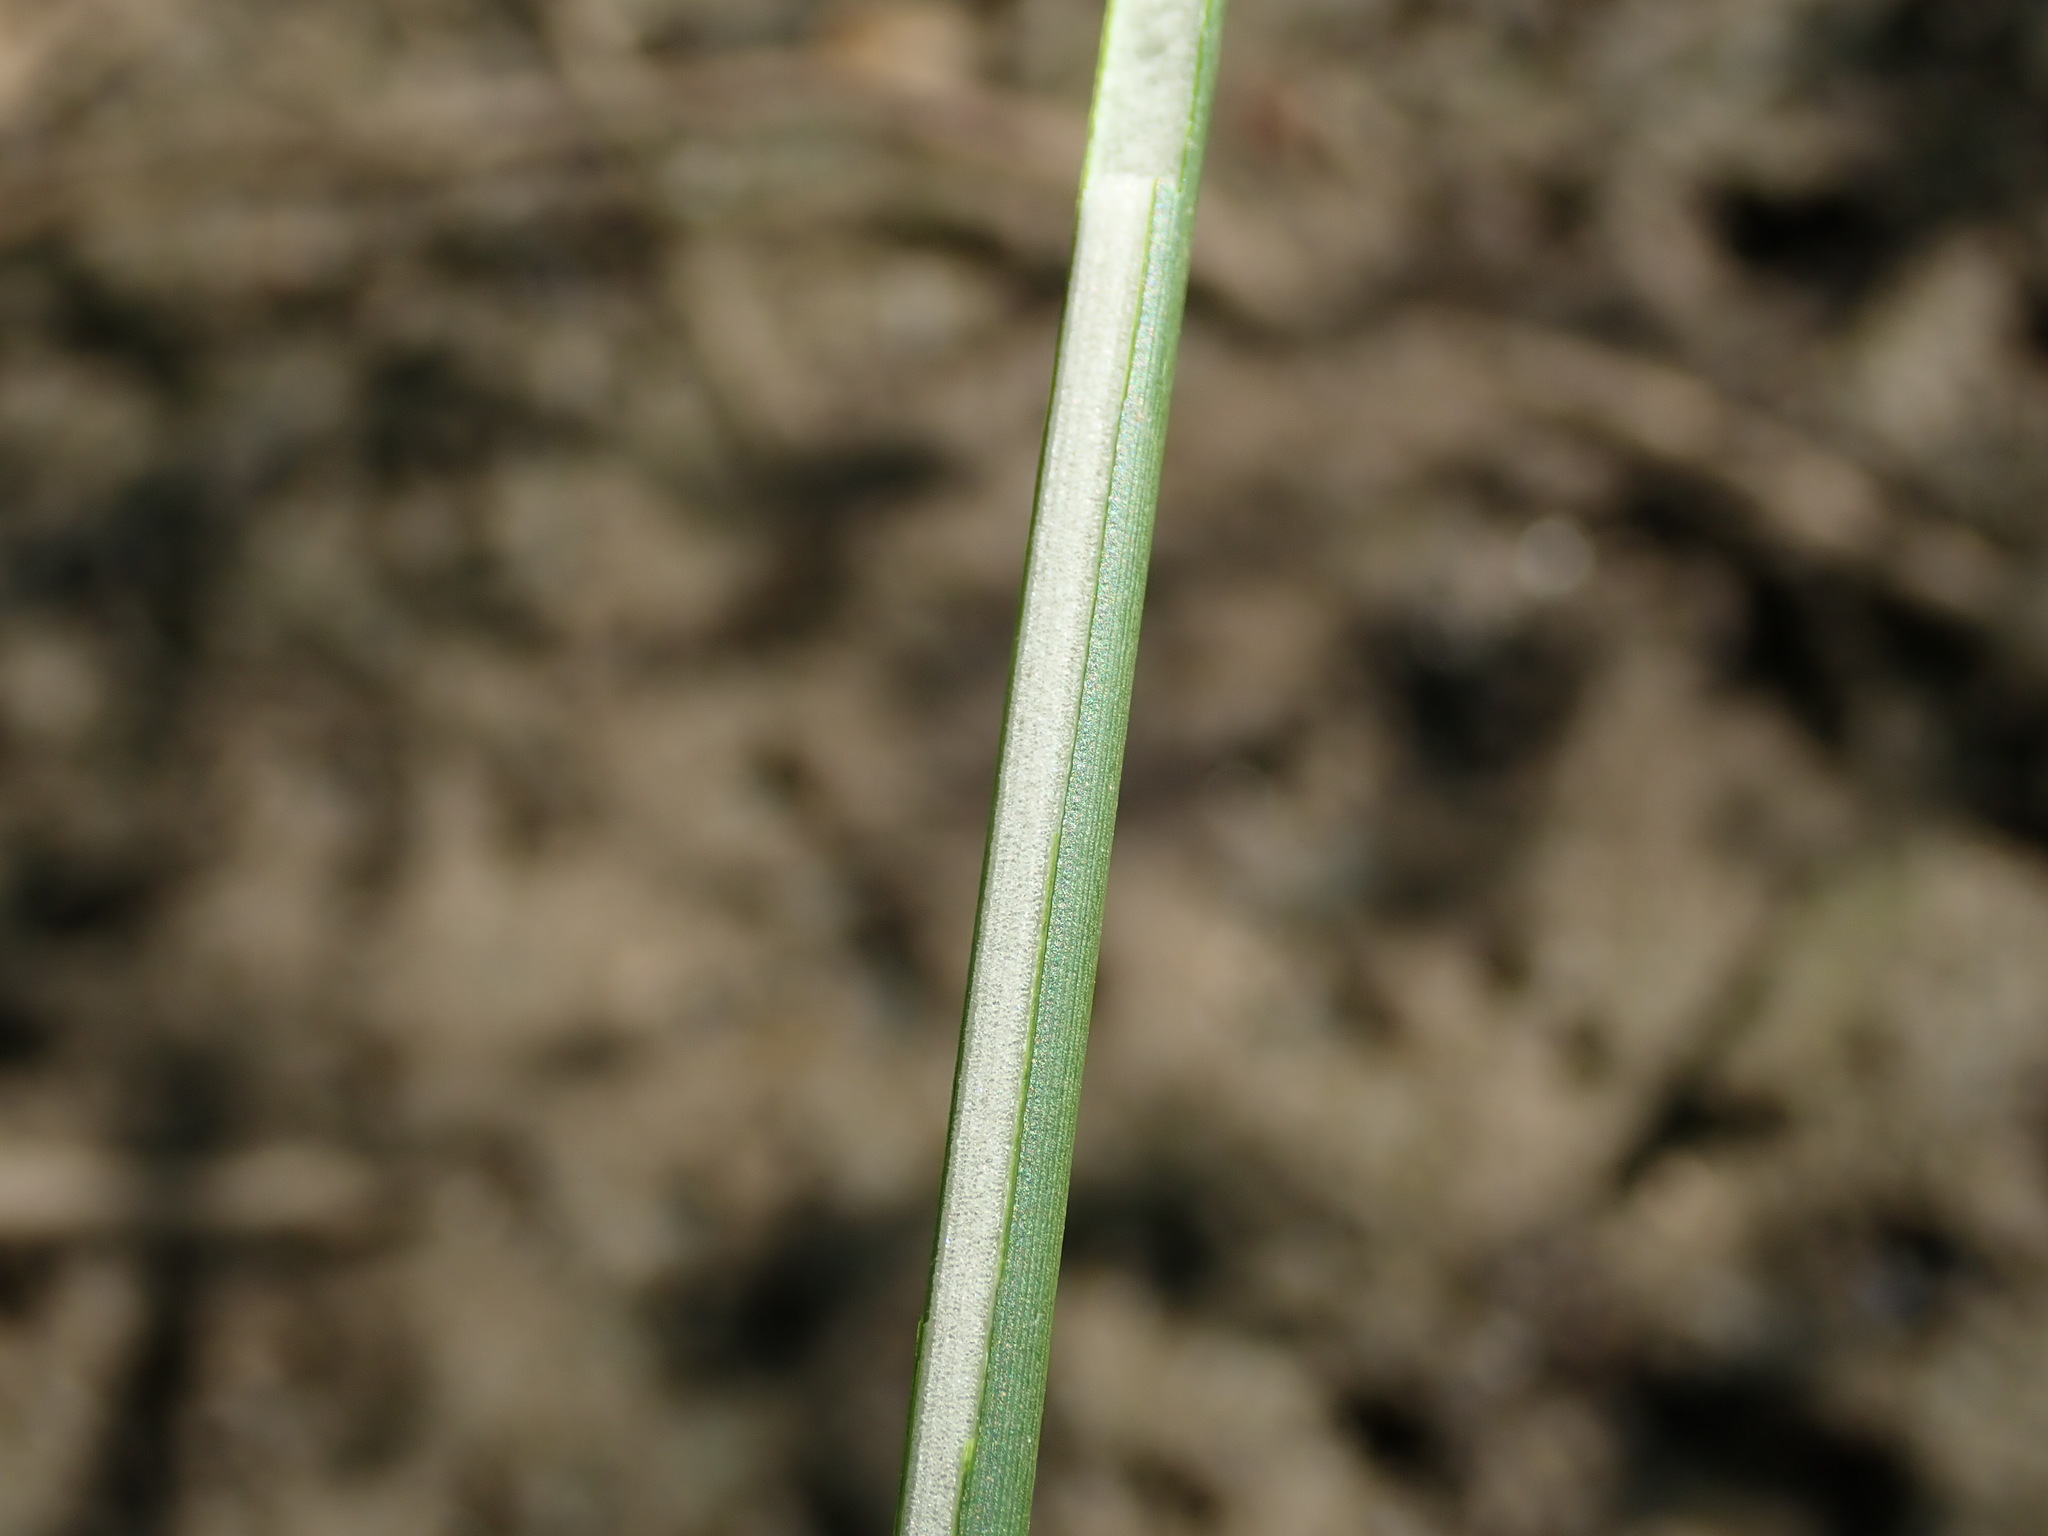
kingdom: Plantae
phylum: Tracheophyta
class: Liliopsida
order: Poales
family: Juncaceae
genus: Juncus
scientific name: Juncus effusus
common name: Soft rush
